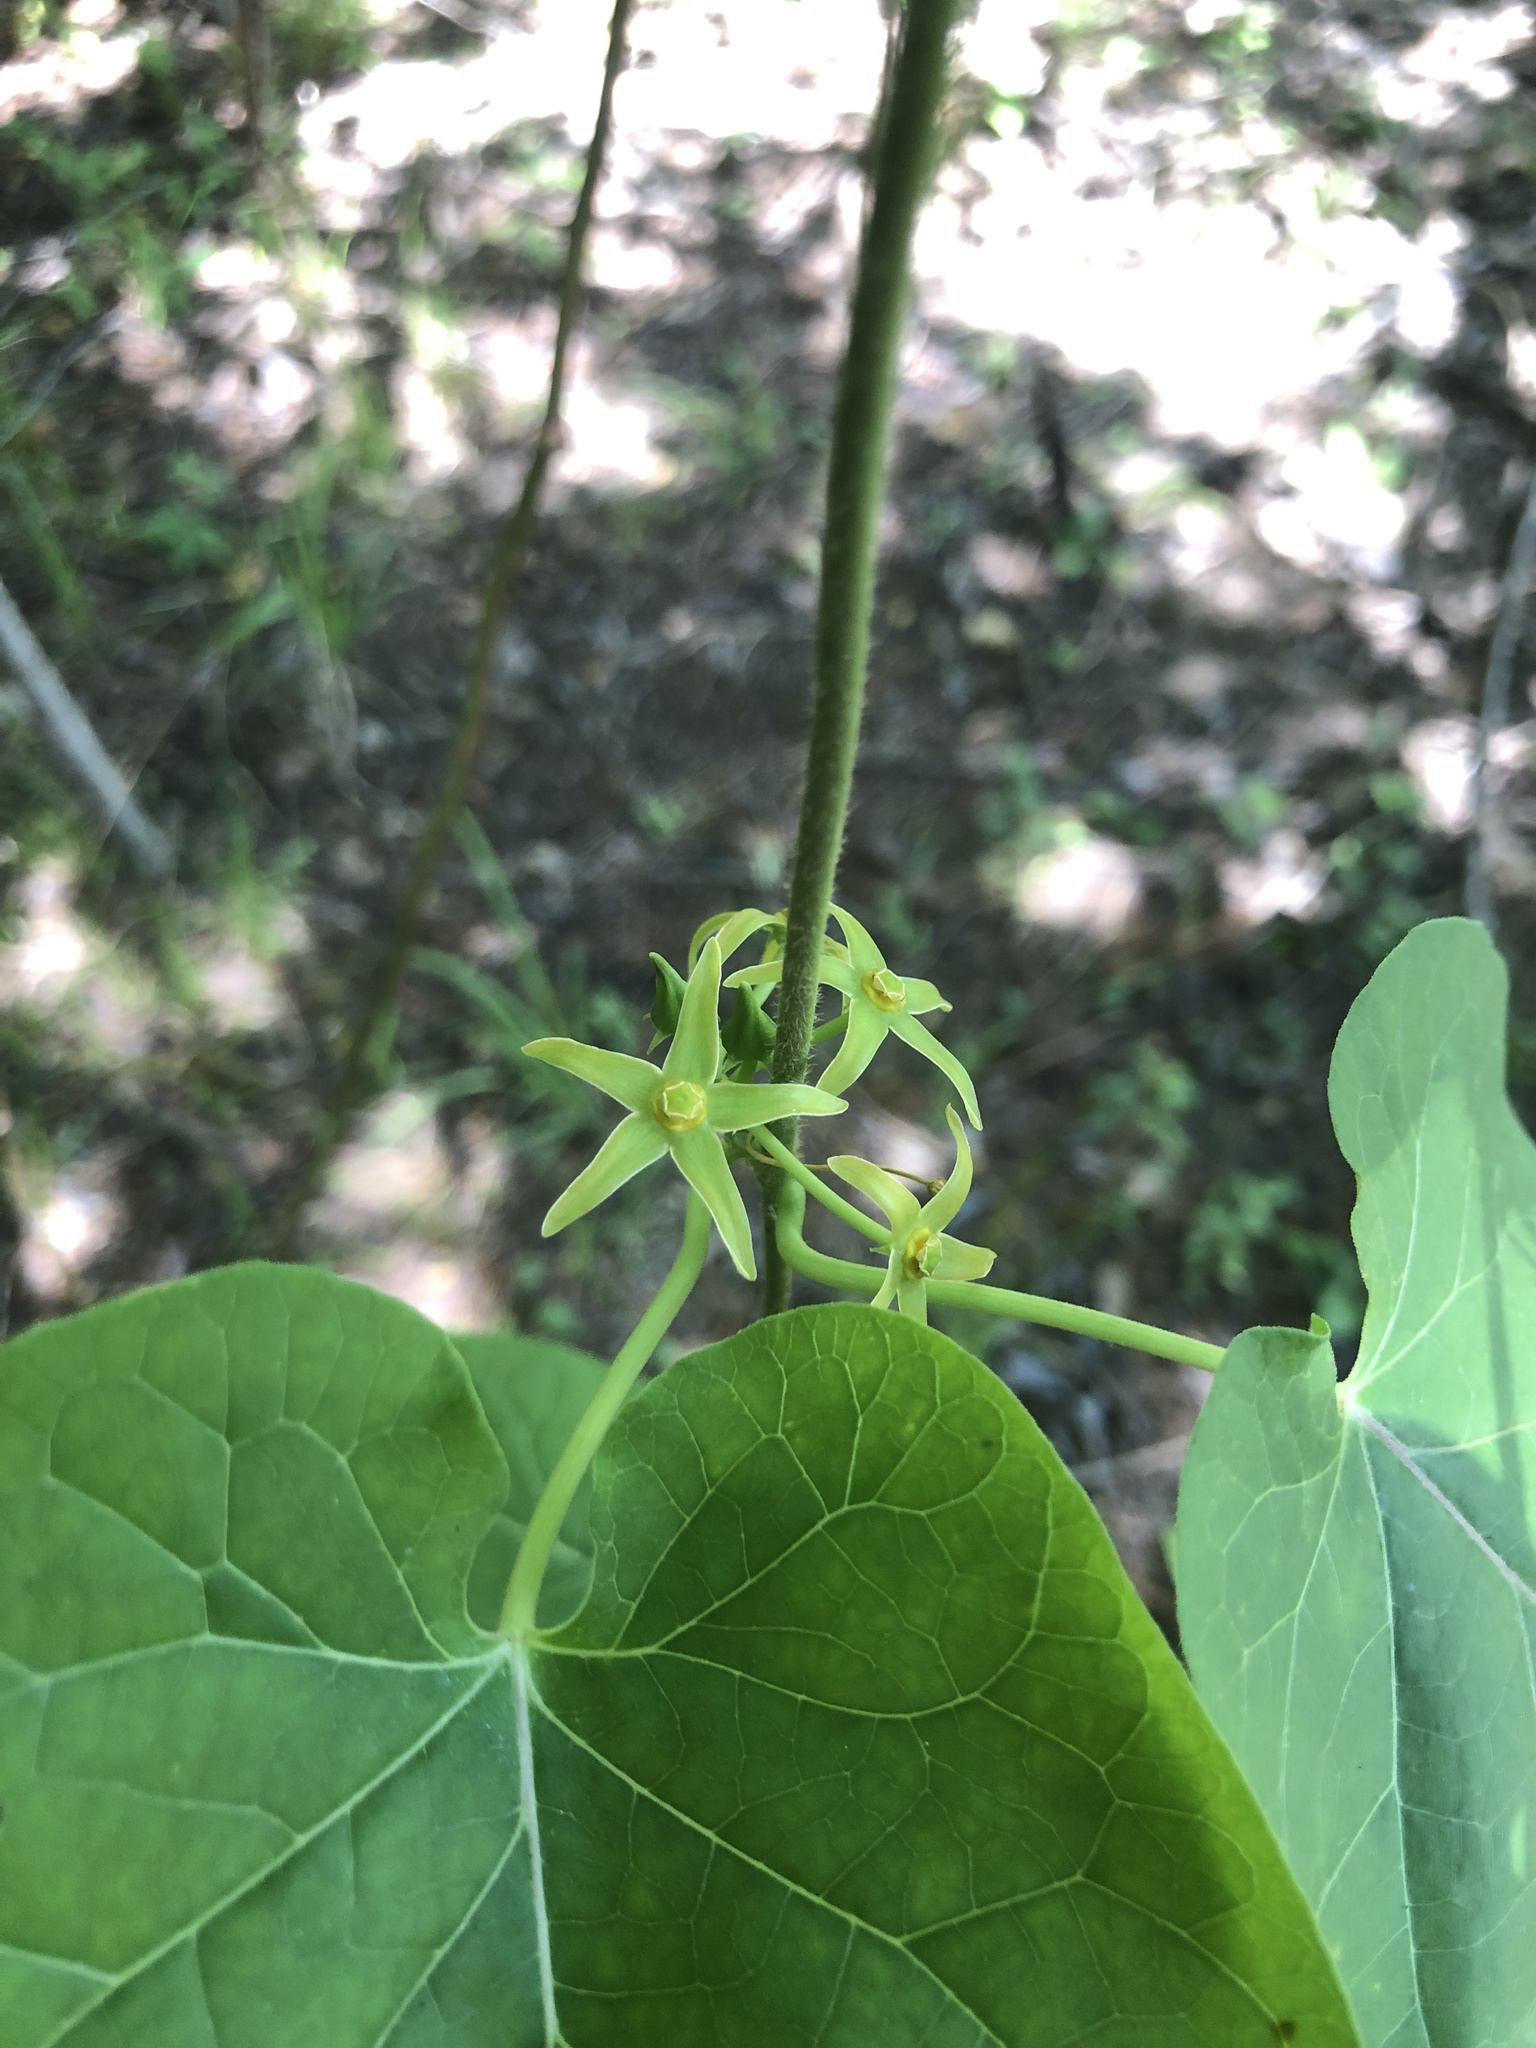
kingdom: Plantae
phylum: Tracheophyta
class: Magnoliopsida
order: Gentianales
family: Apocynaceae
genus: Gonolobus
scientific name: Gonolobus suberosus
